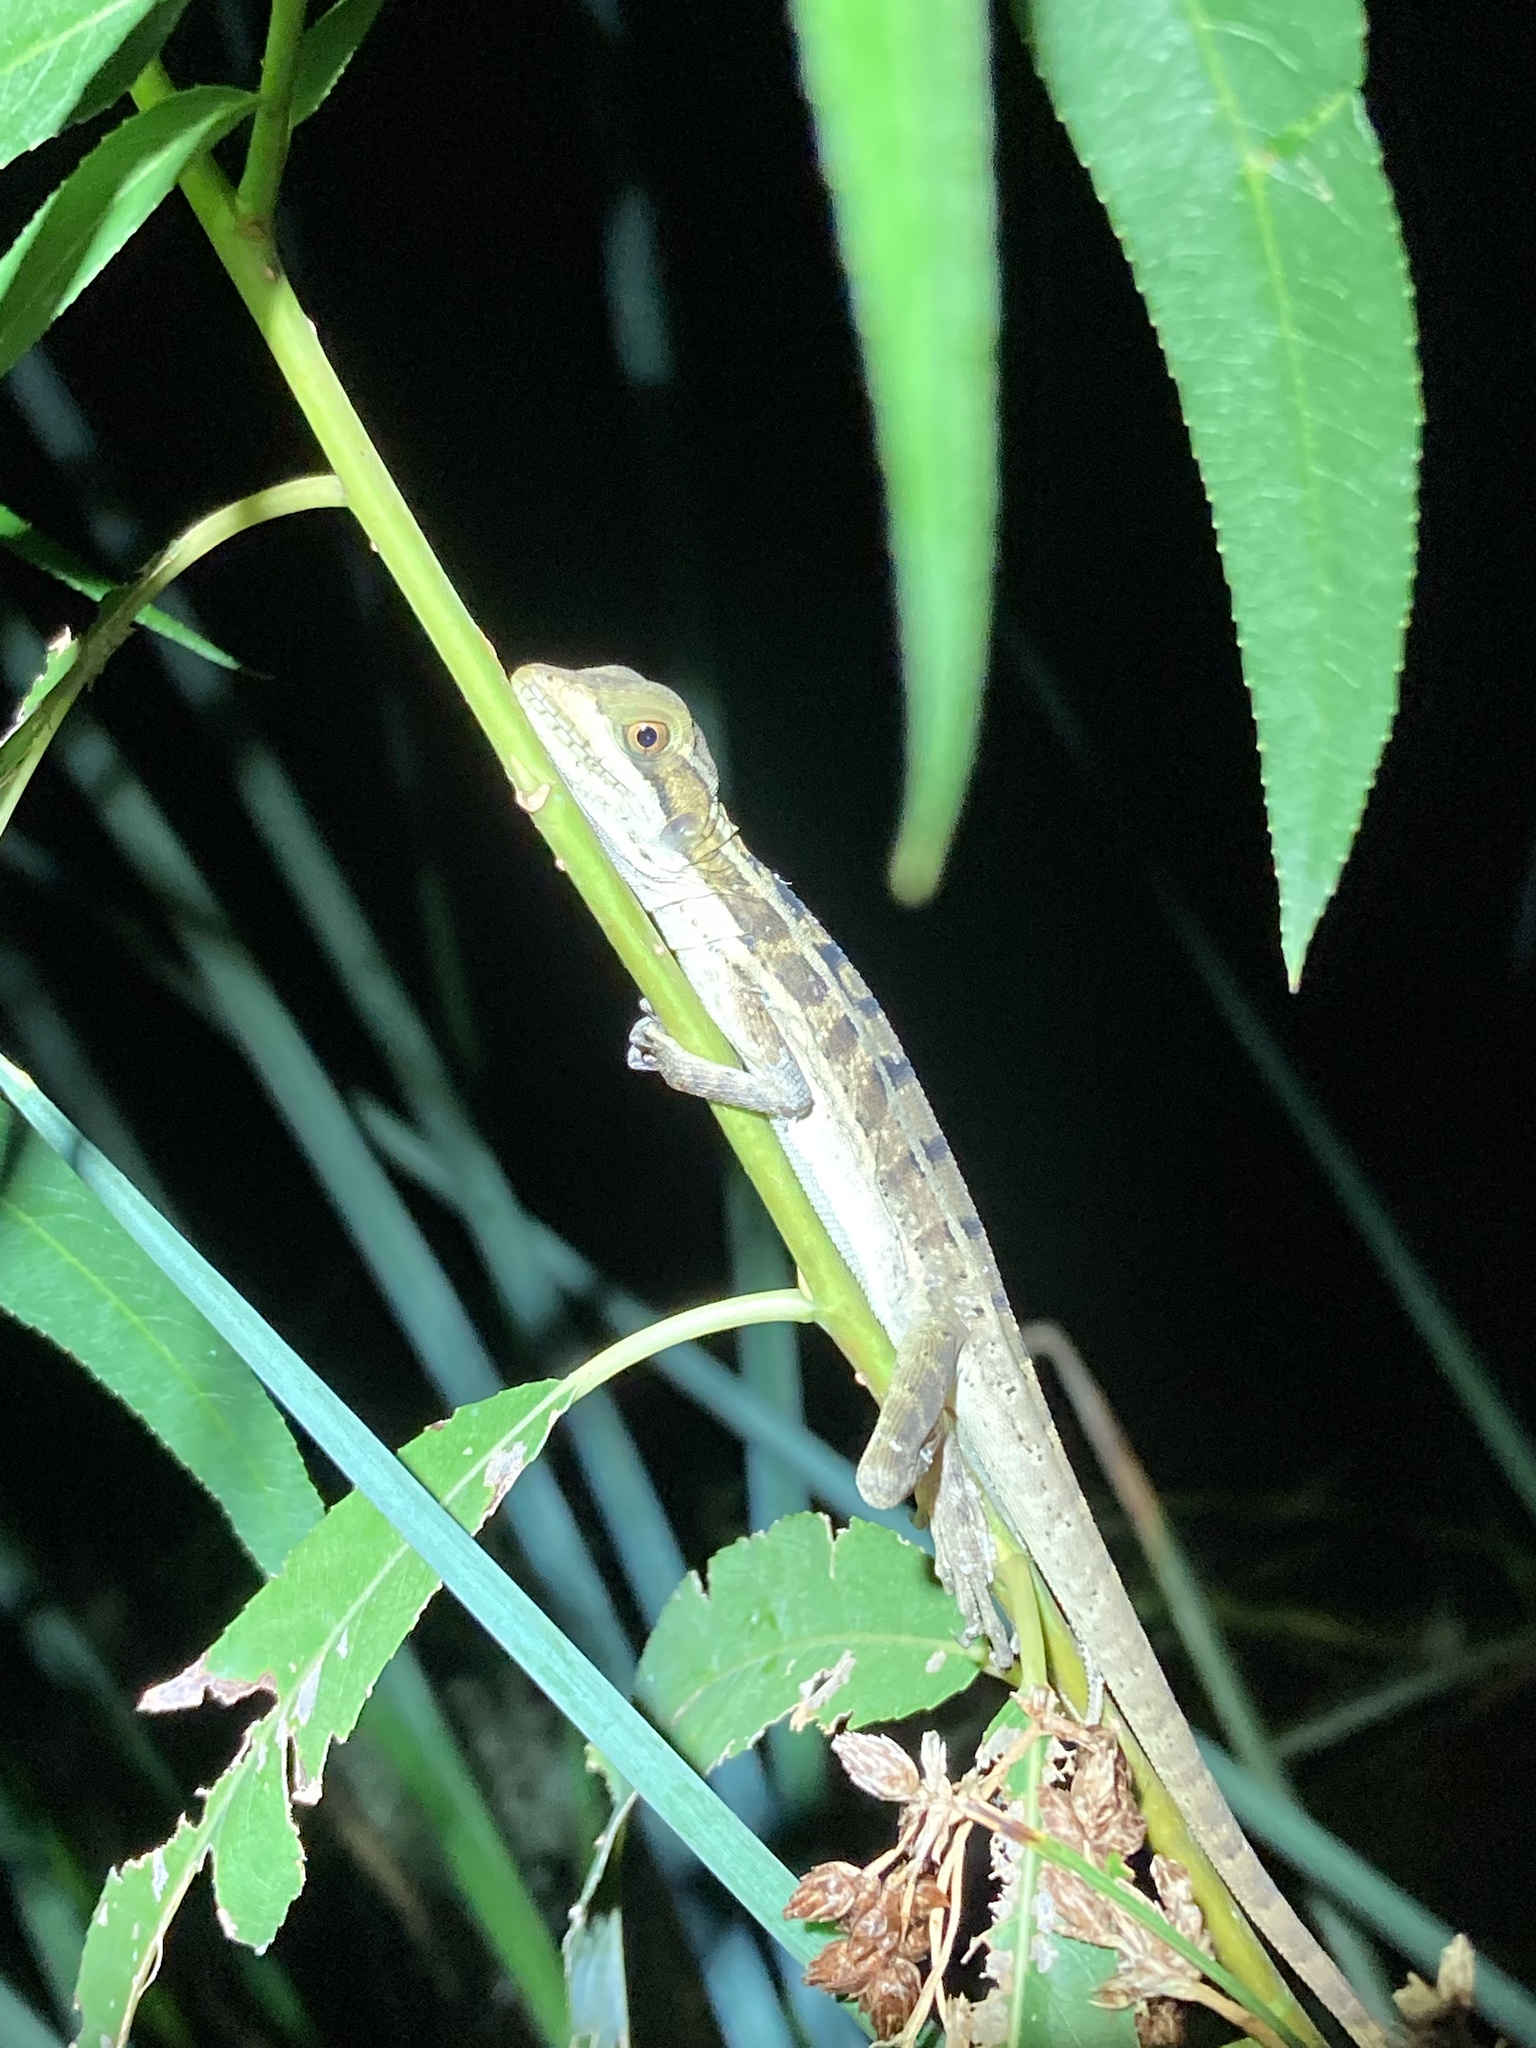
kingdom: Animalia
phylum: Chordata
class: Squamata
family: Corytophanidae
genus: Basiliscus
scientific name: Basiliscus vittatus
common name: Brown basilisk
